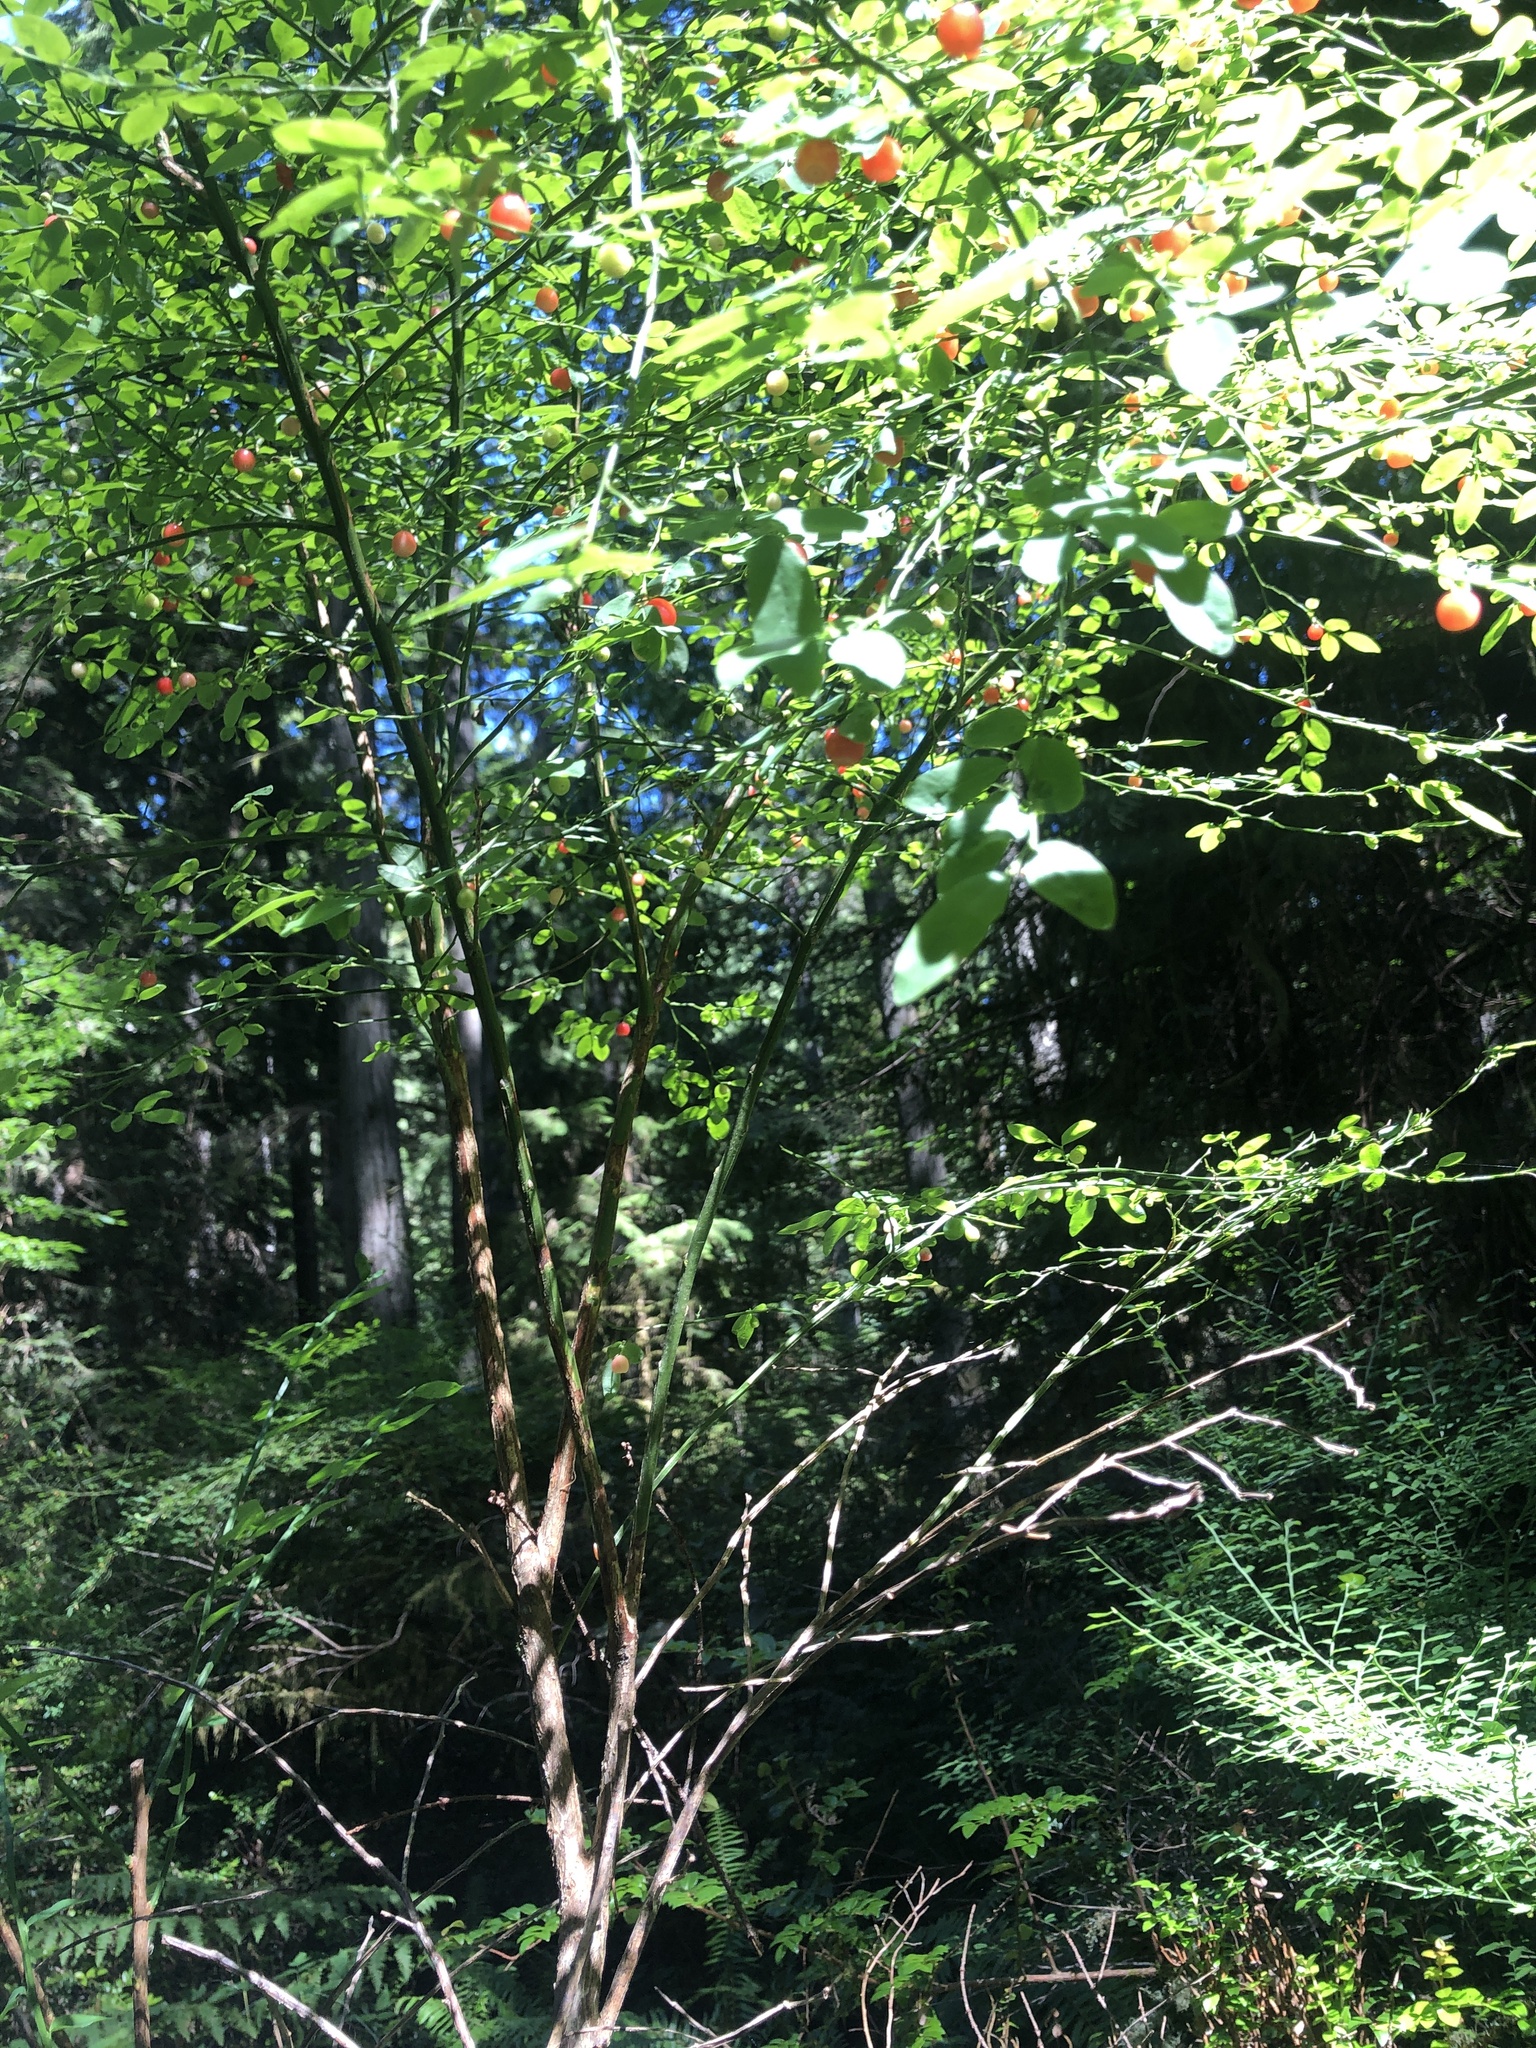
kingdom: Plantae
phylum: Tracheophyta
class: Magnoliopsida
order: Ericales
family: Ericaceae
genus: Vaccinium
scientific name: Vaccinium parvifolium
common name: Red-huckleberry
